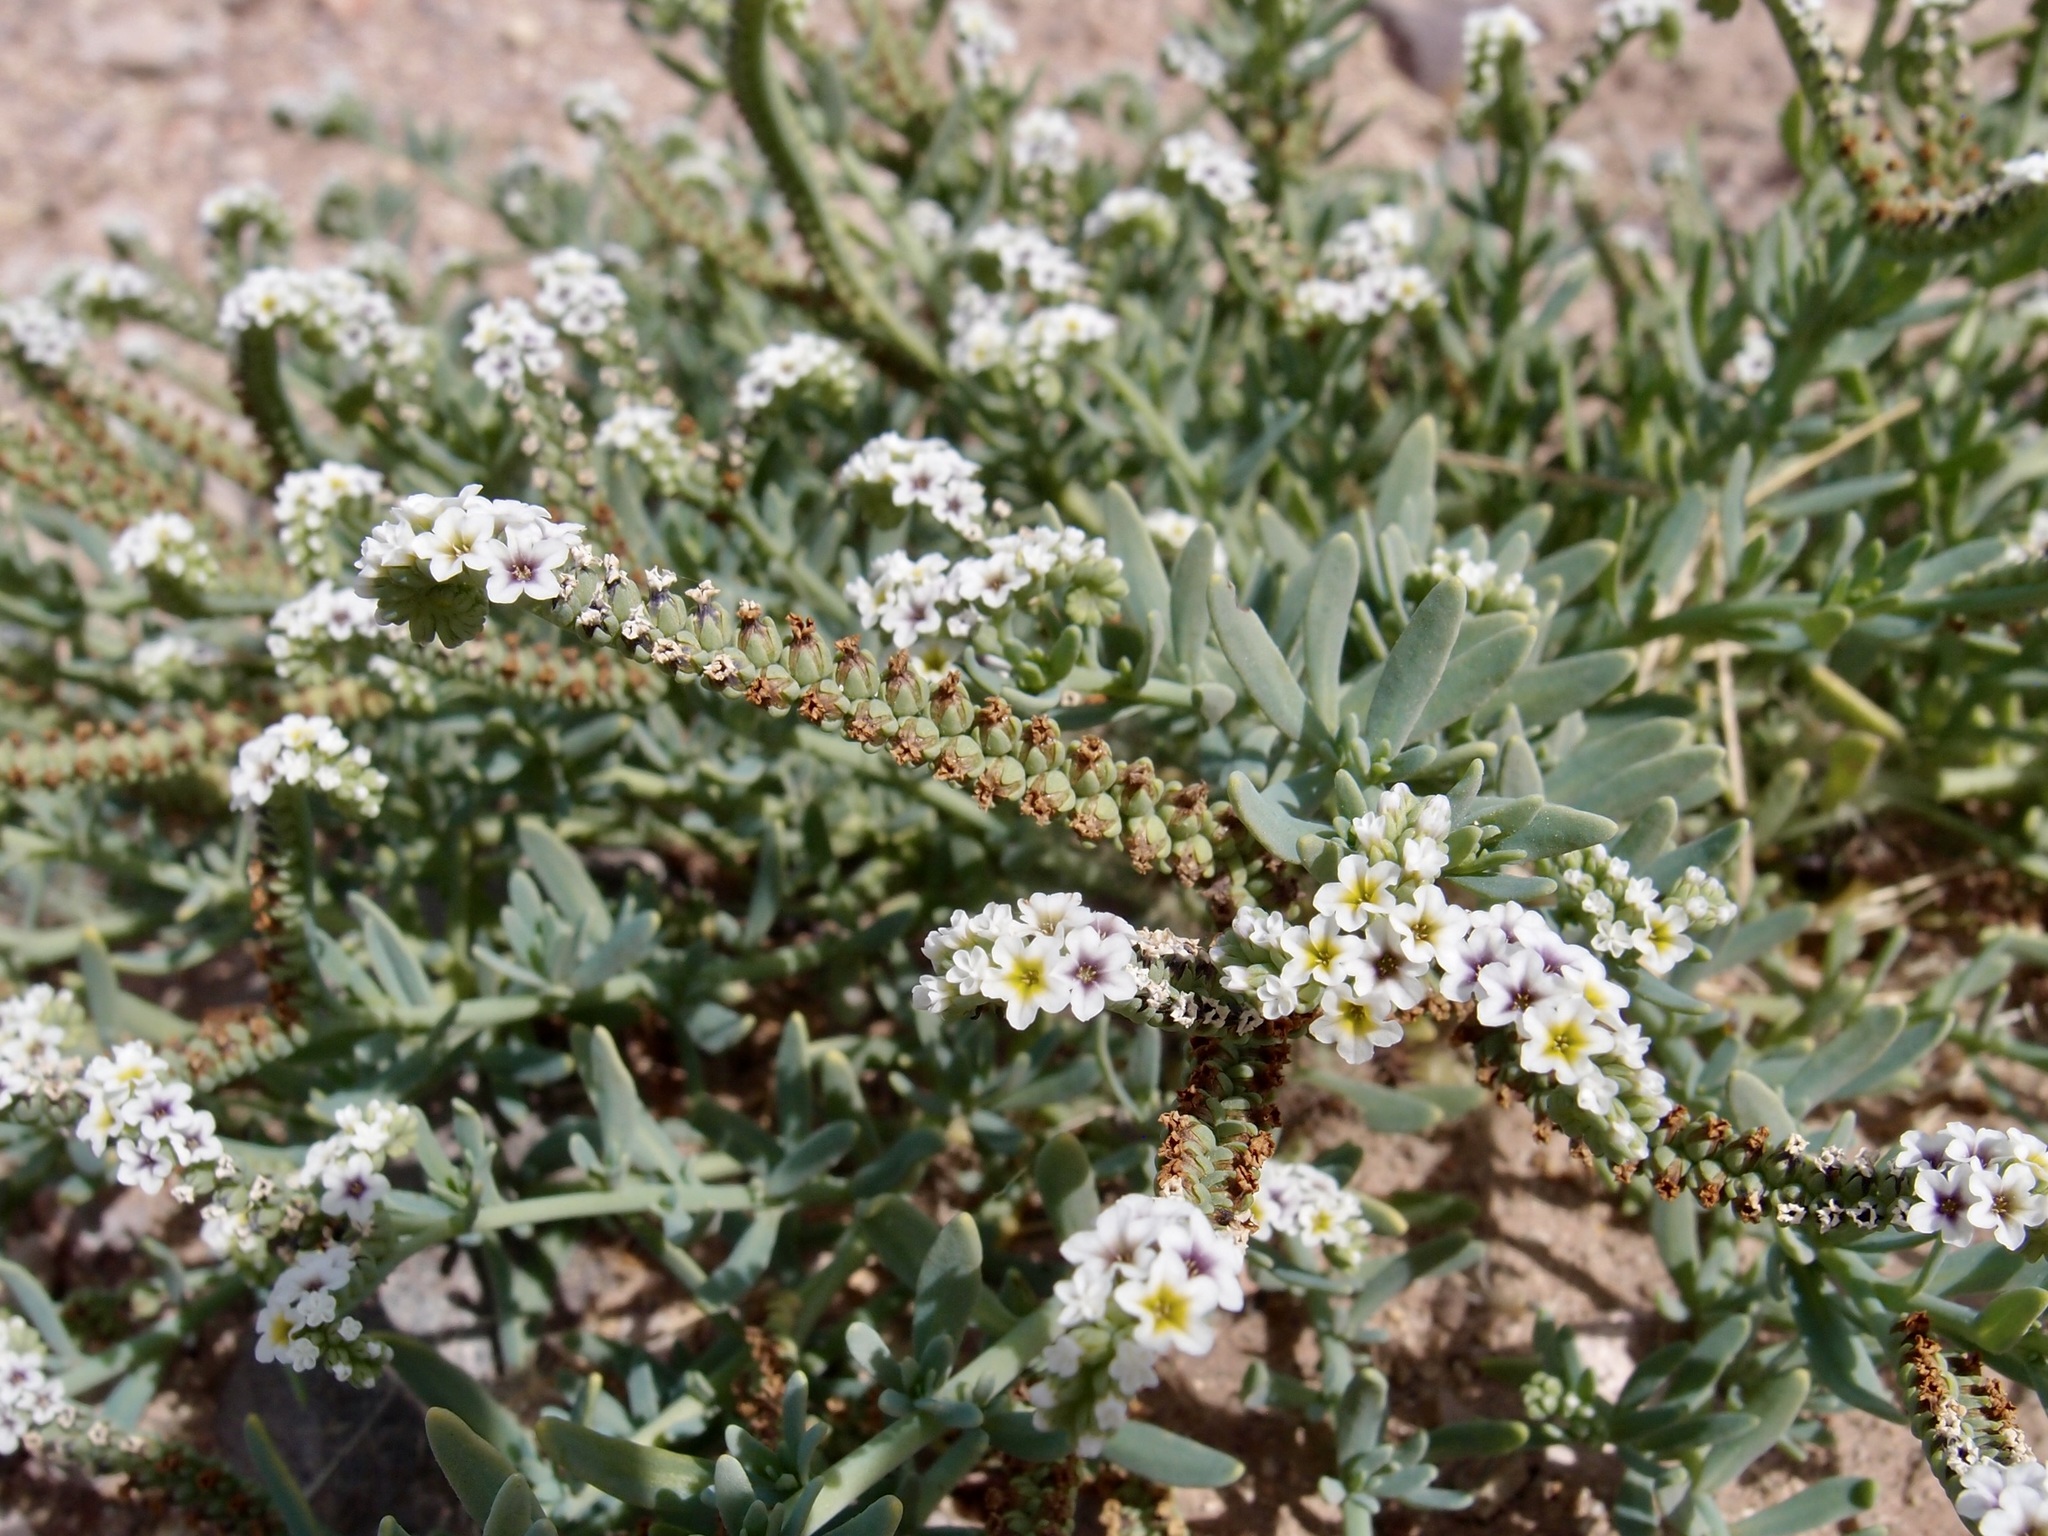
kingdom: Plantae
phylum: Tracheophyta
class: Magnoliopsida
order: Boraginales
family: Heliotropiaceae
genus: Heliotropium
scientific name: Heliotropium curassavicum
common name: Seaside heliotrope
